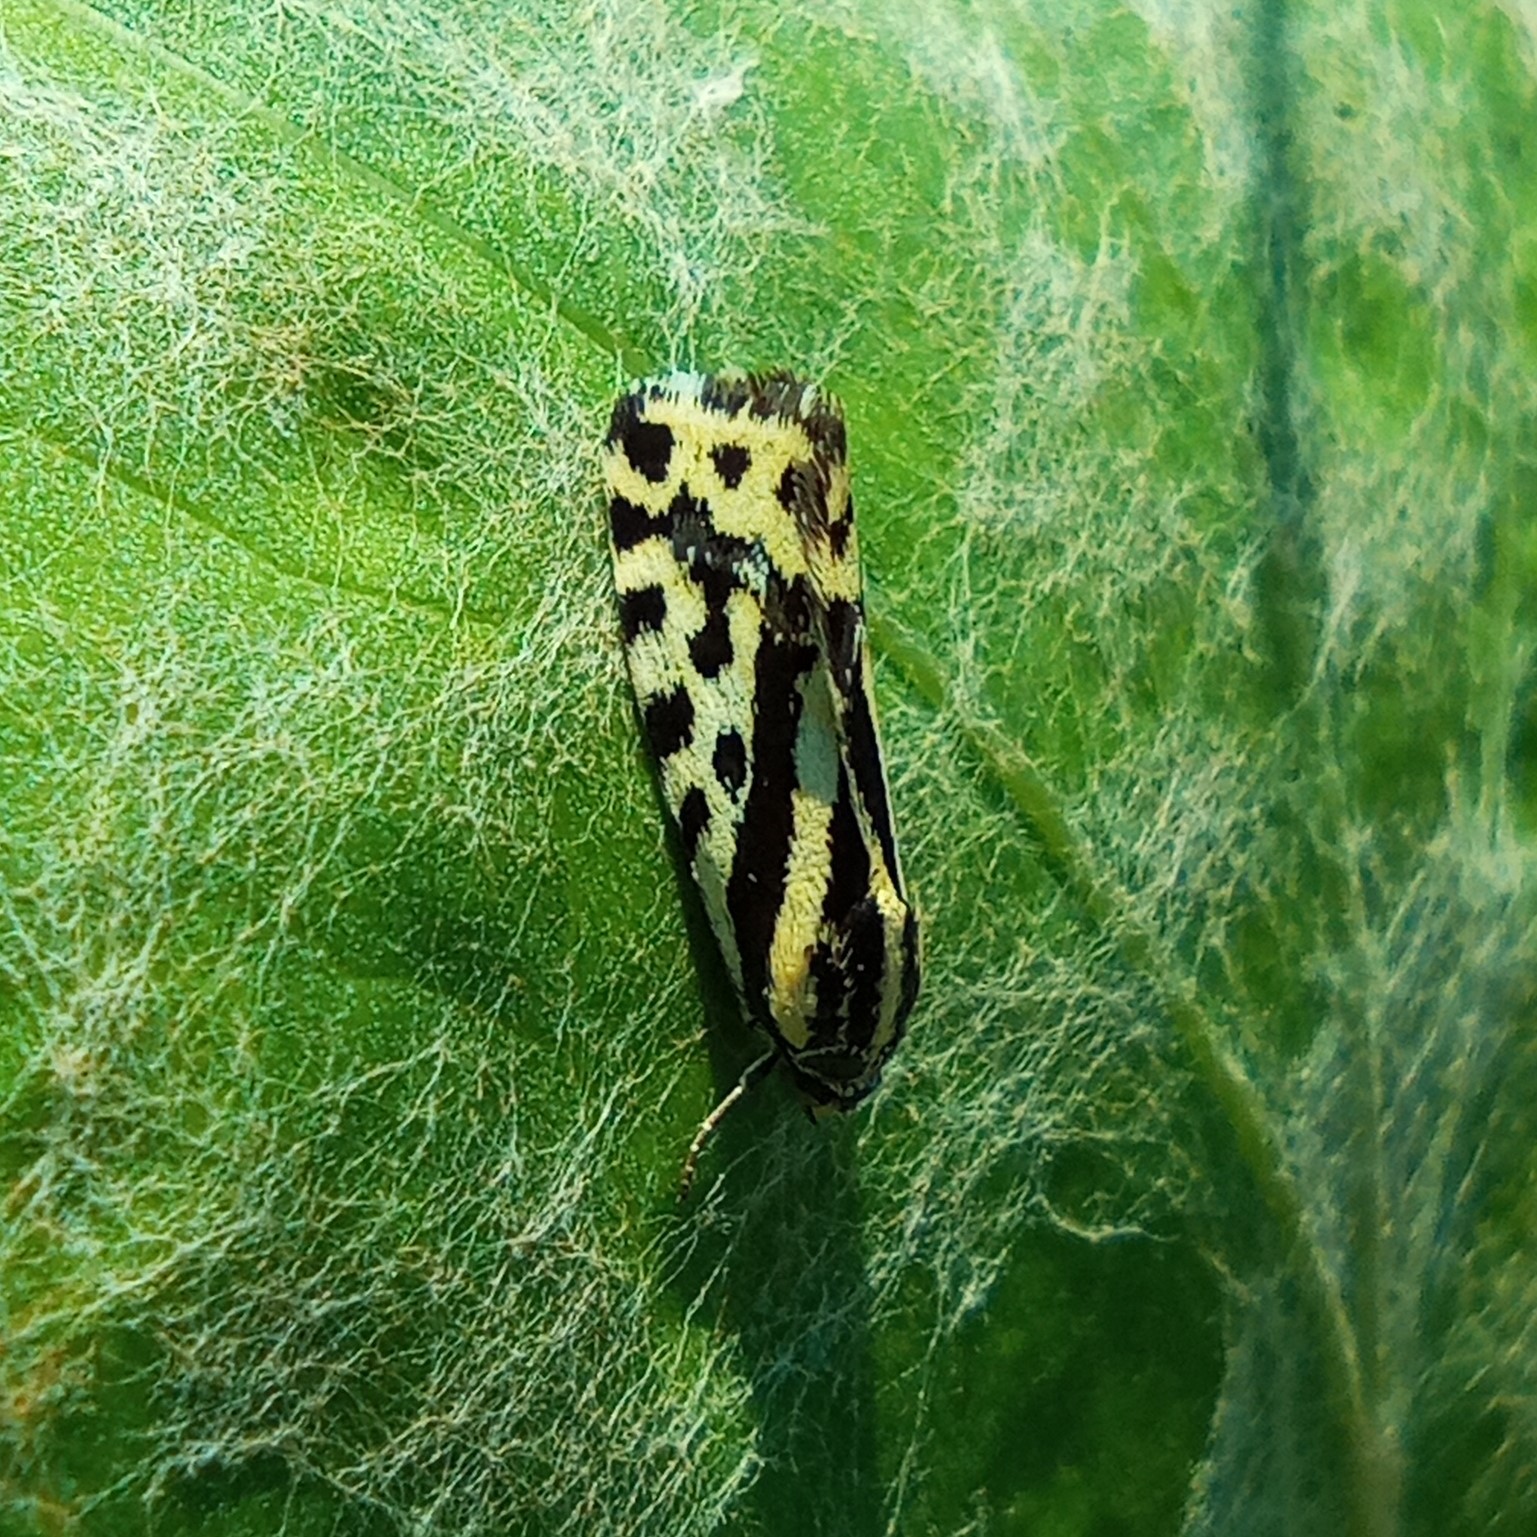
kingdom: Animalia
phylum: Arthropoda
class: Insecta
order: Lepidoptera
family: Noctuidae
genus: Acontia
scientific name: Acontia trabealis
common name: Spotted sulphur
